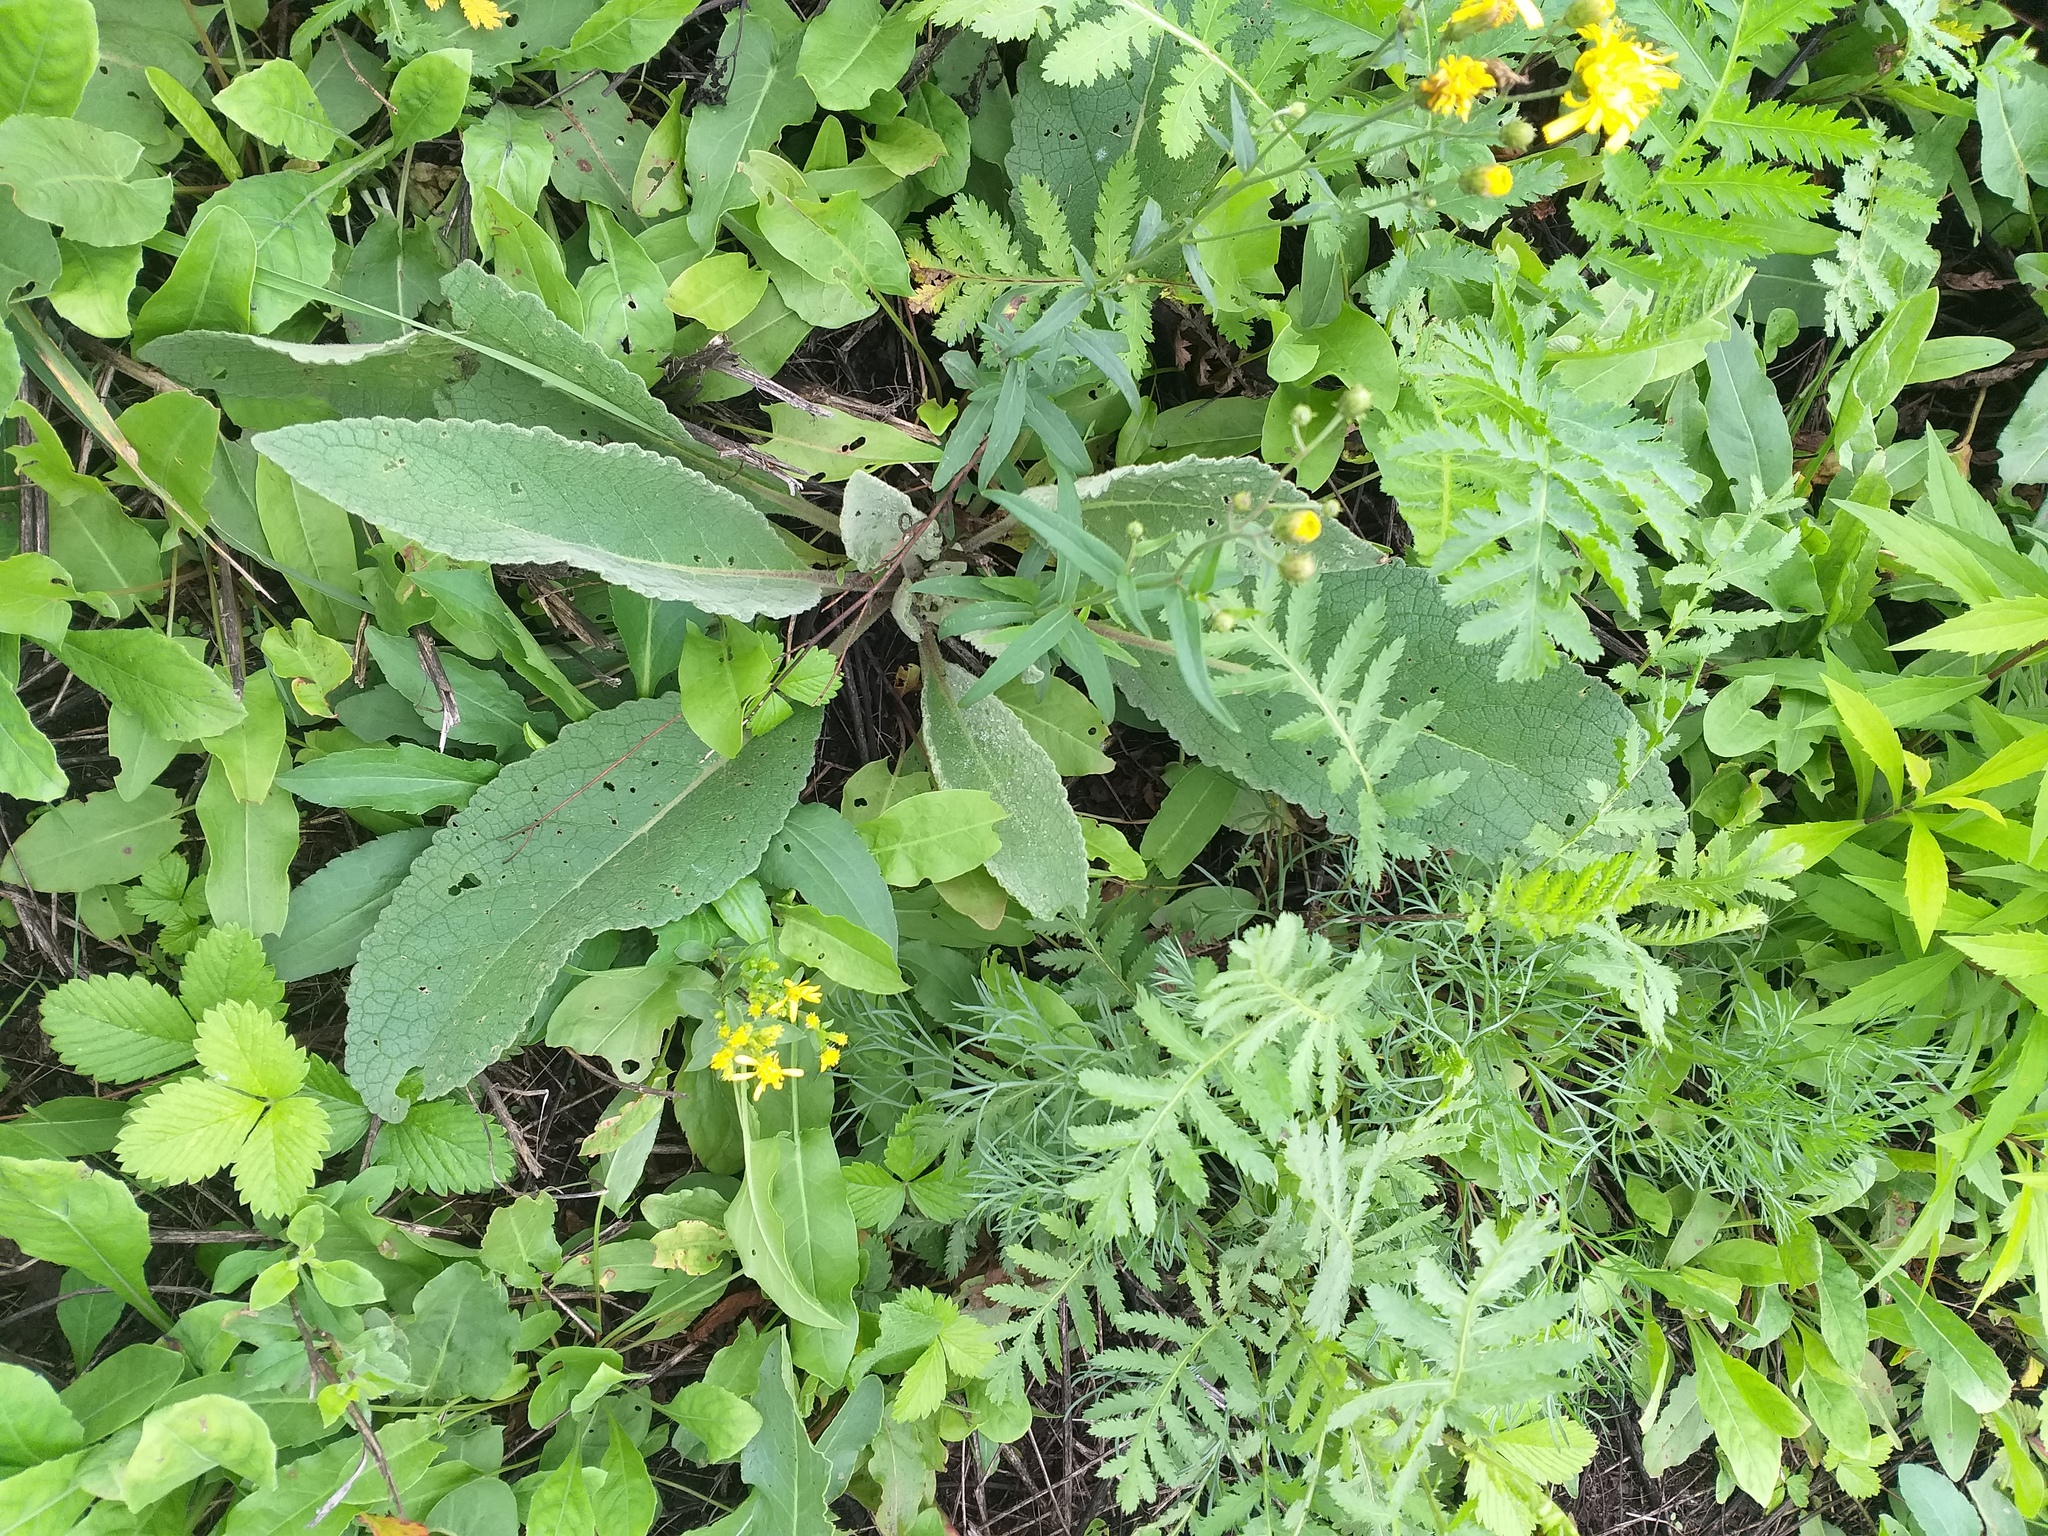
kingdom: Plantae
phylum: Tracheophyta
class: Magnoliopsida
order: Lamiales
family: Scrophulariaceae
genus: Verbascum
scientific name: Verbascum nigrum
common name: Dark mullein
